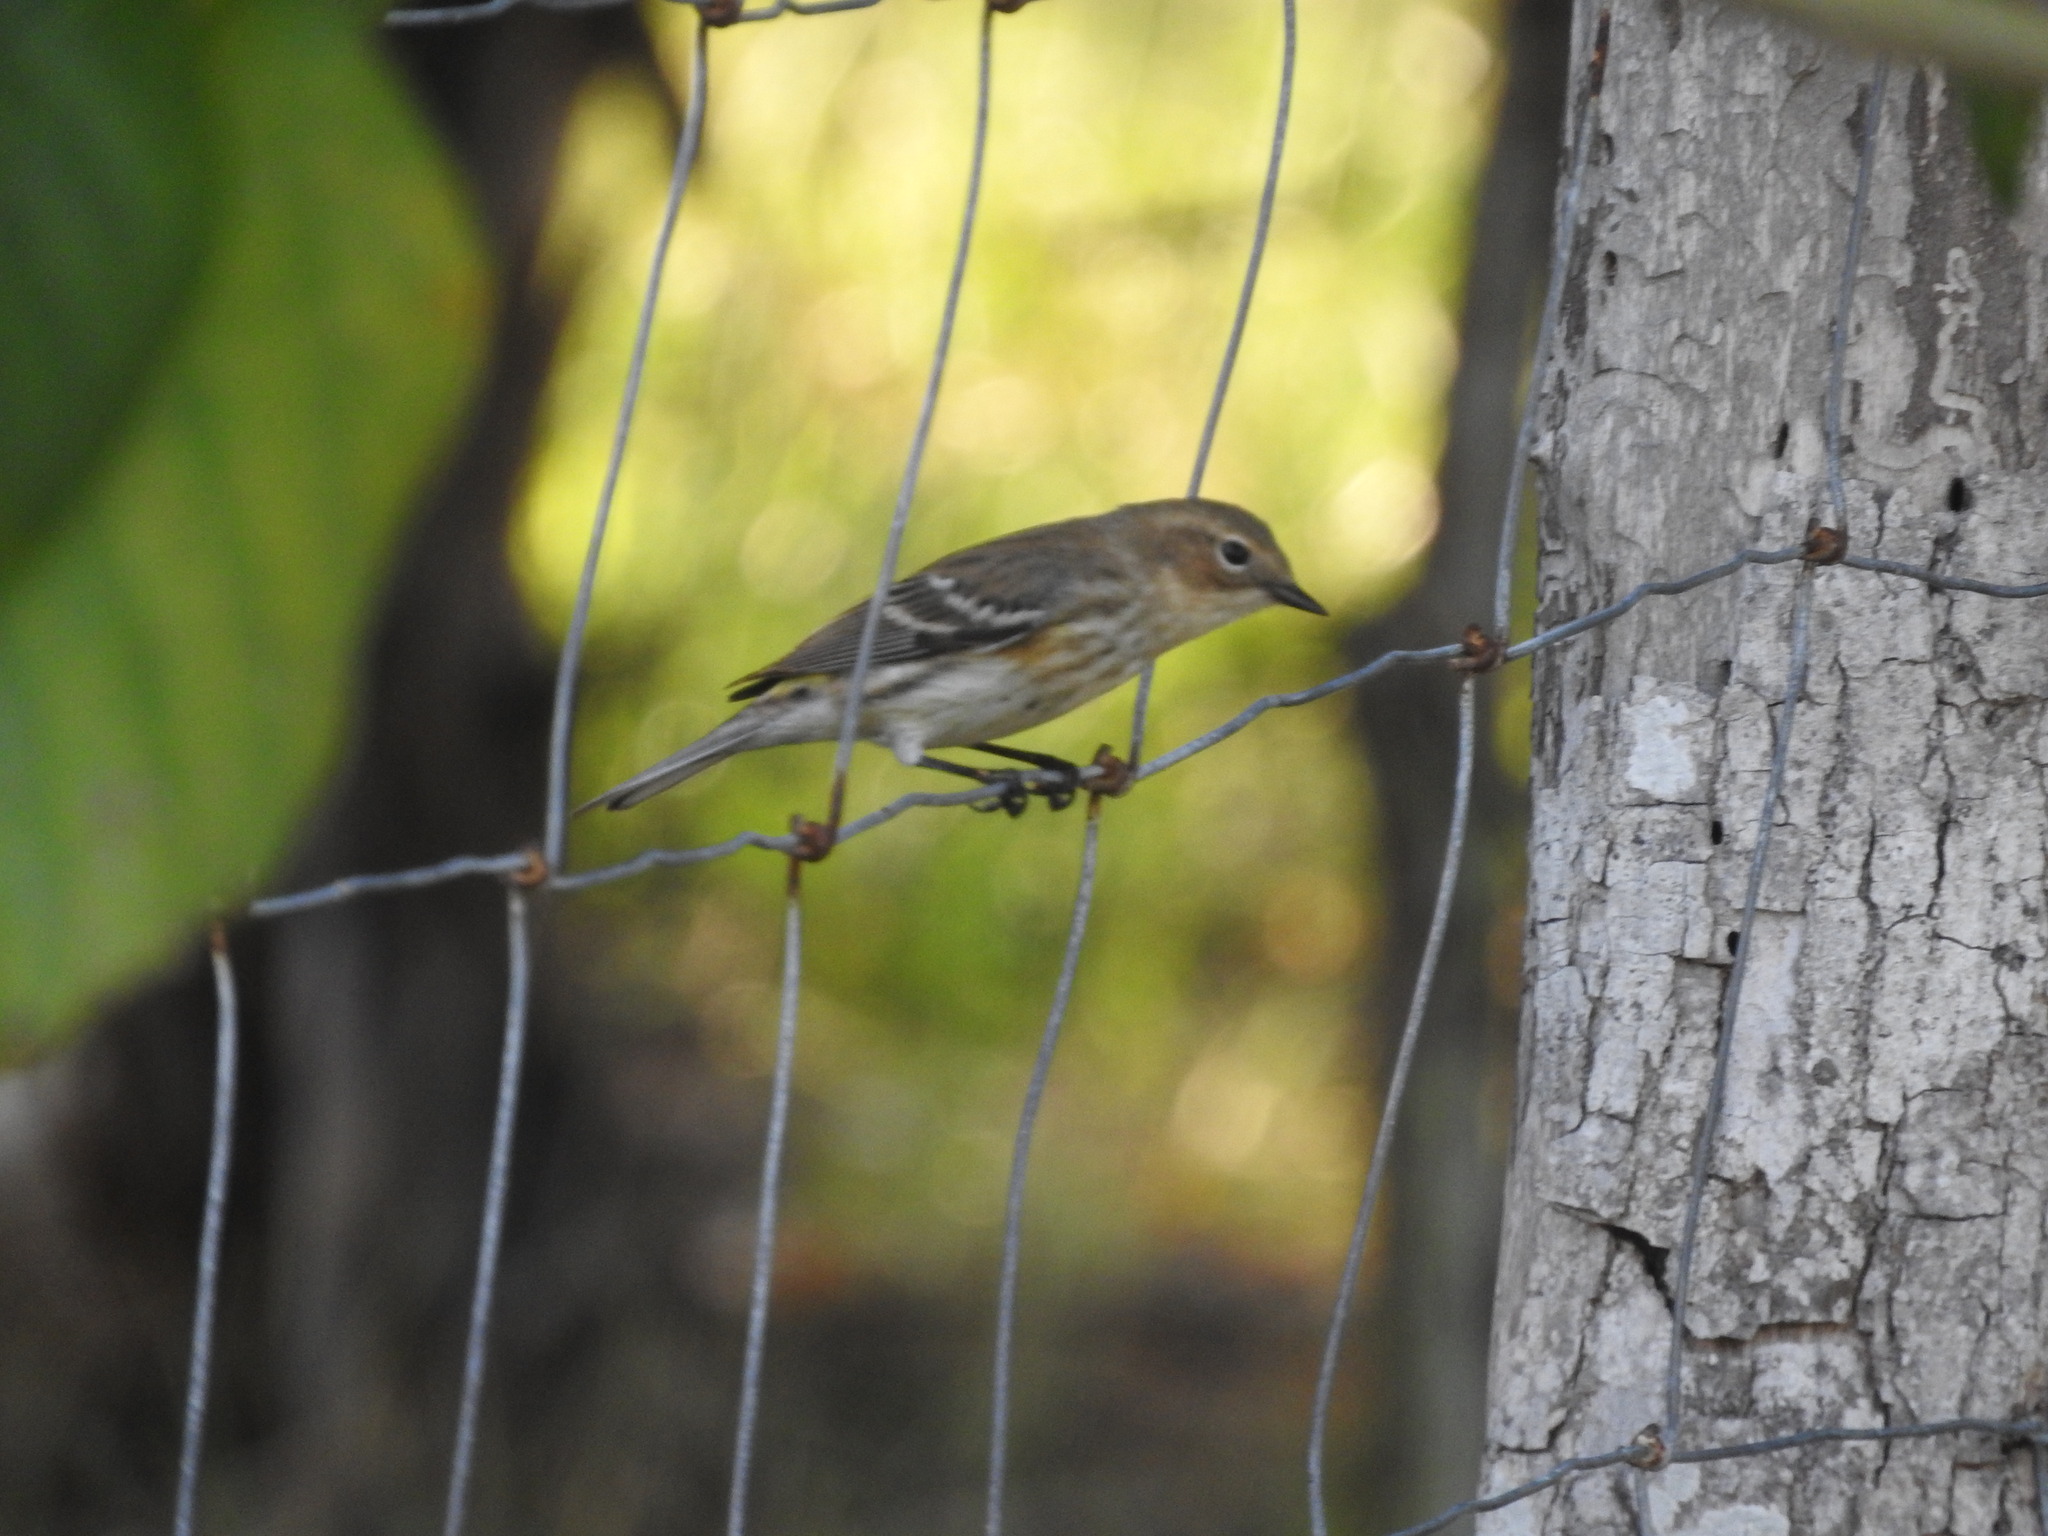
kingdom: Animalia
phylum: Chordata
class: Aves
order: Passeriformes
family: Parulidae
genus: Setophaga
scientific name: Setophaga coronata
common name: Myrtle warbler
